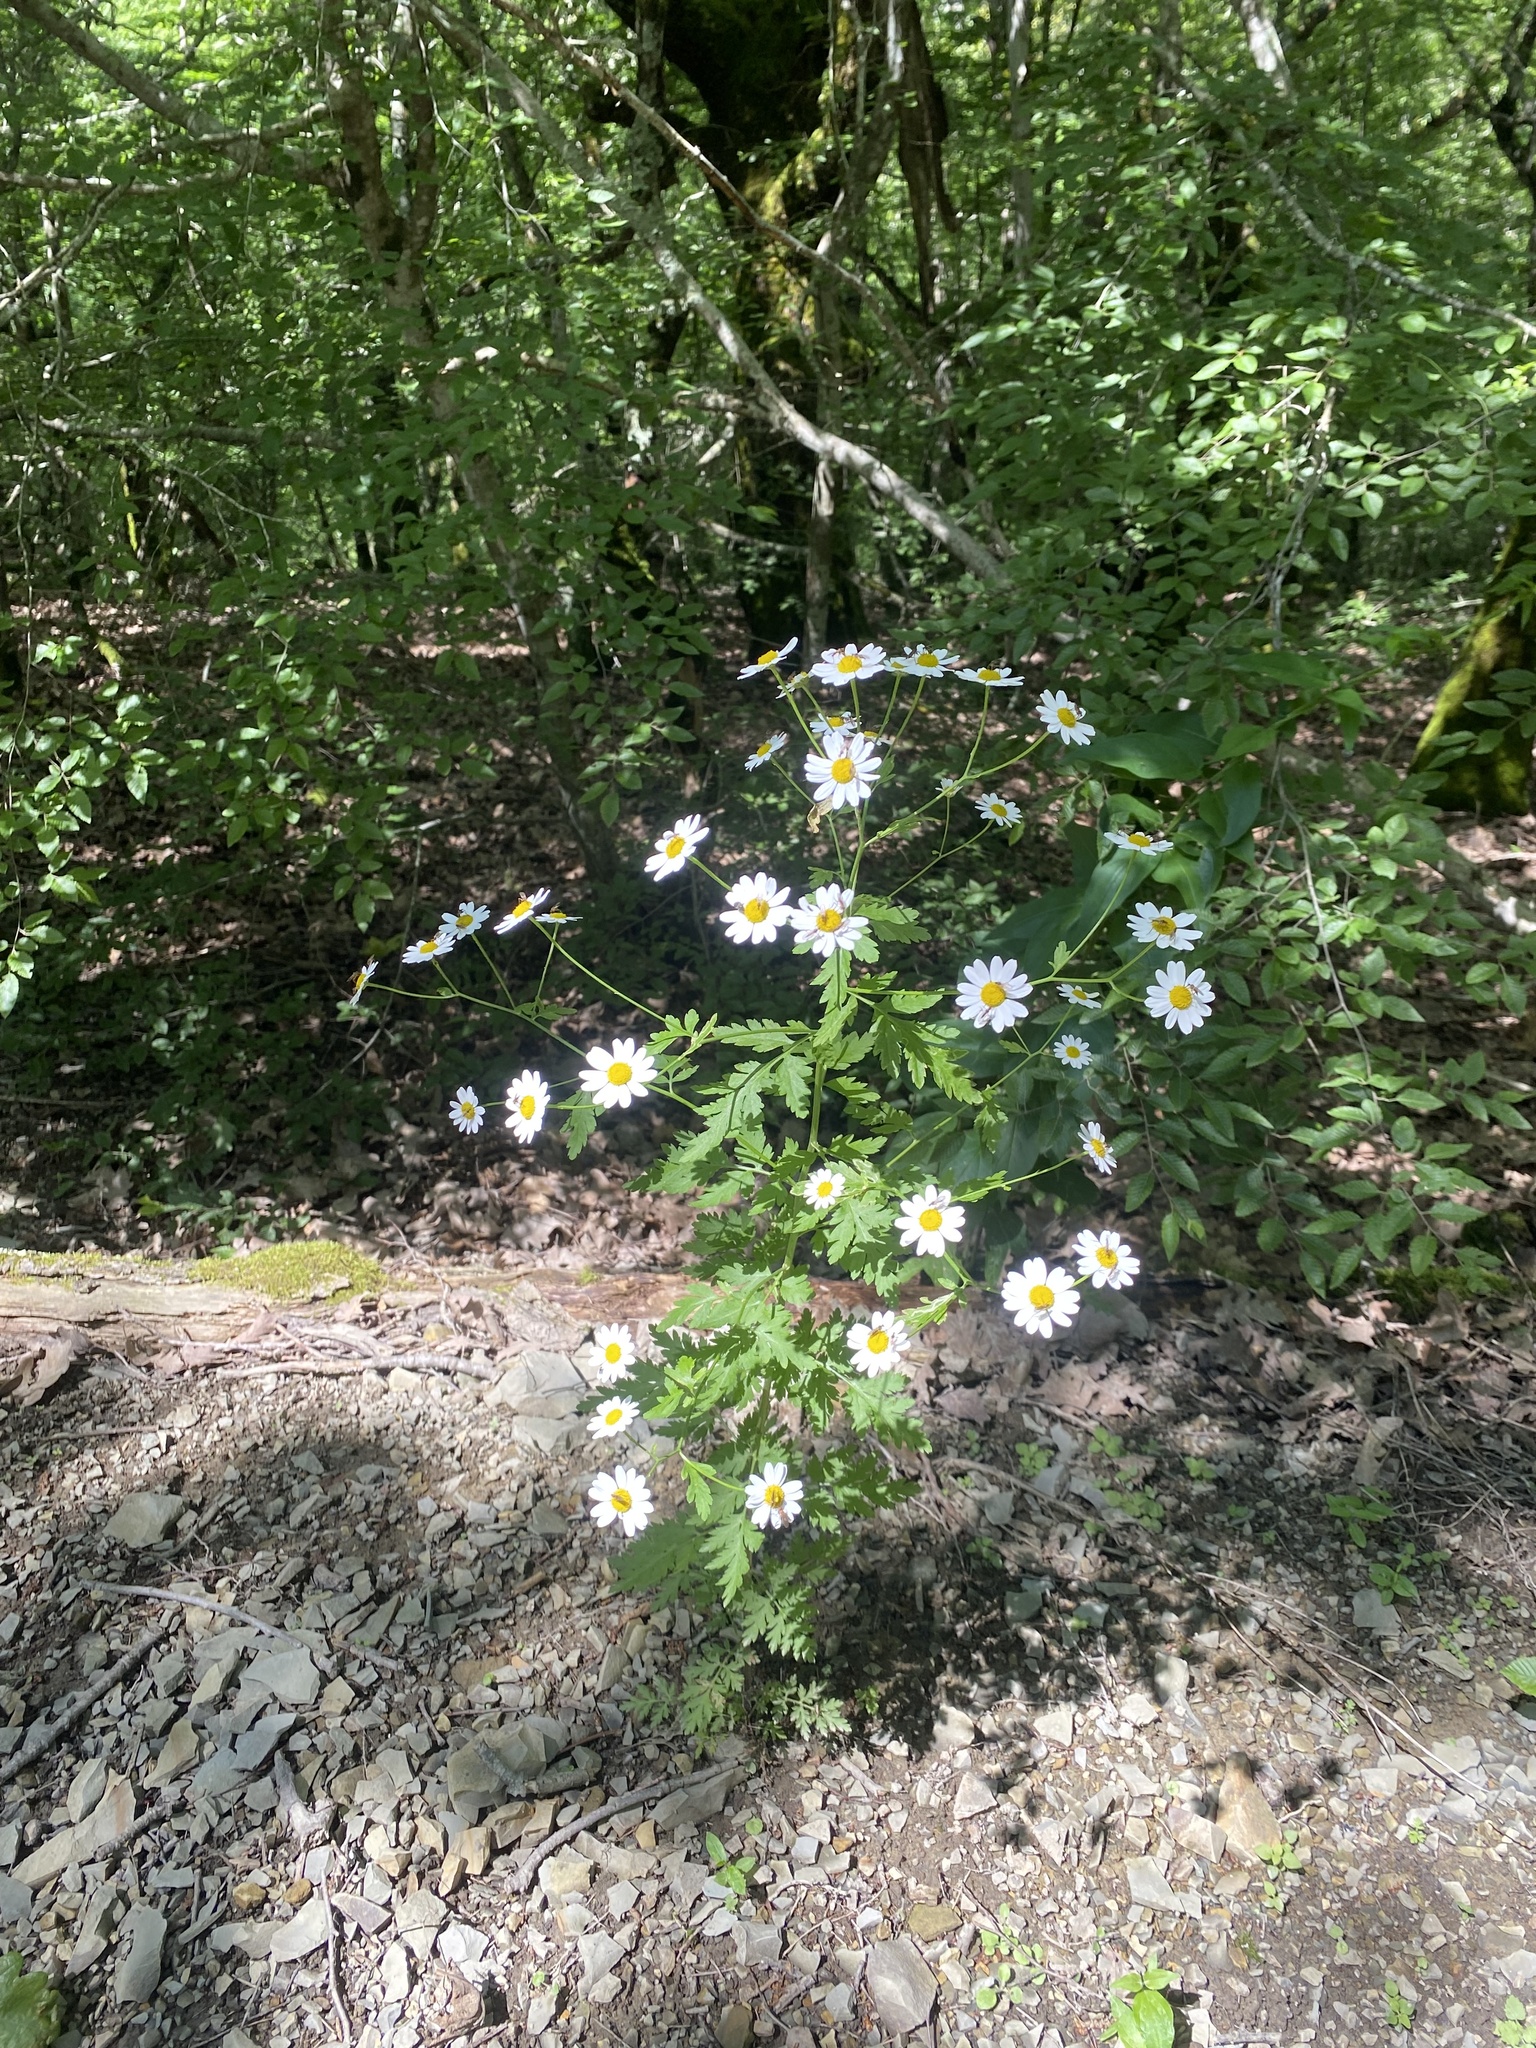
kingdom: Plantae
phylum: Tracheophyta
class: Magnoliopsida
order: Asterales
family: Asteraceae
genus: Tanacetum
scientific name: Tanacetum partheniifolium
